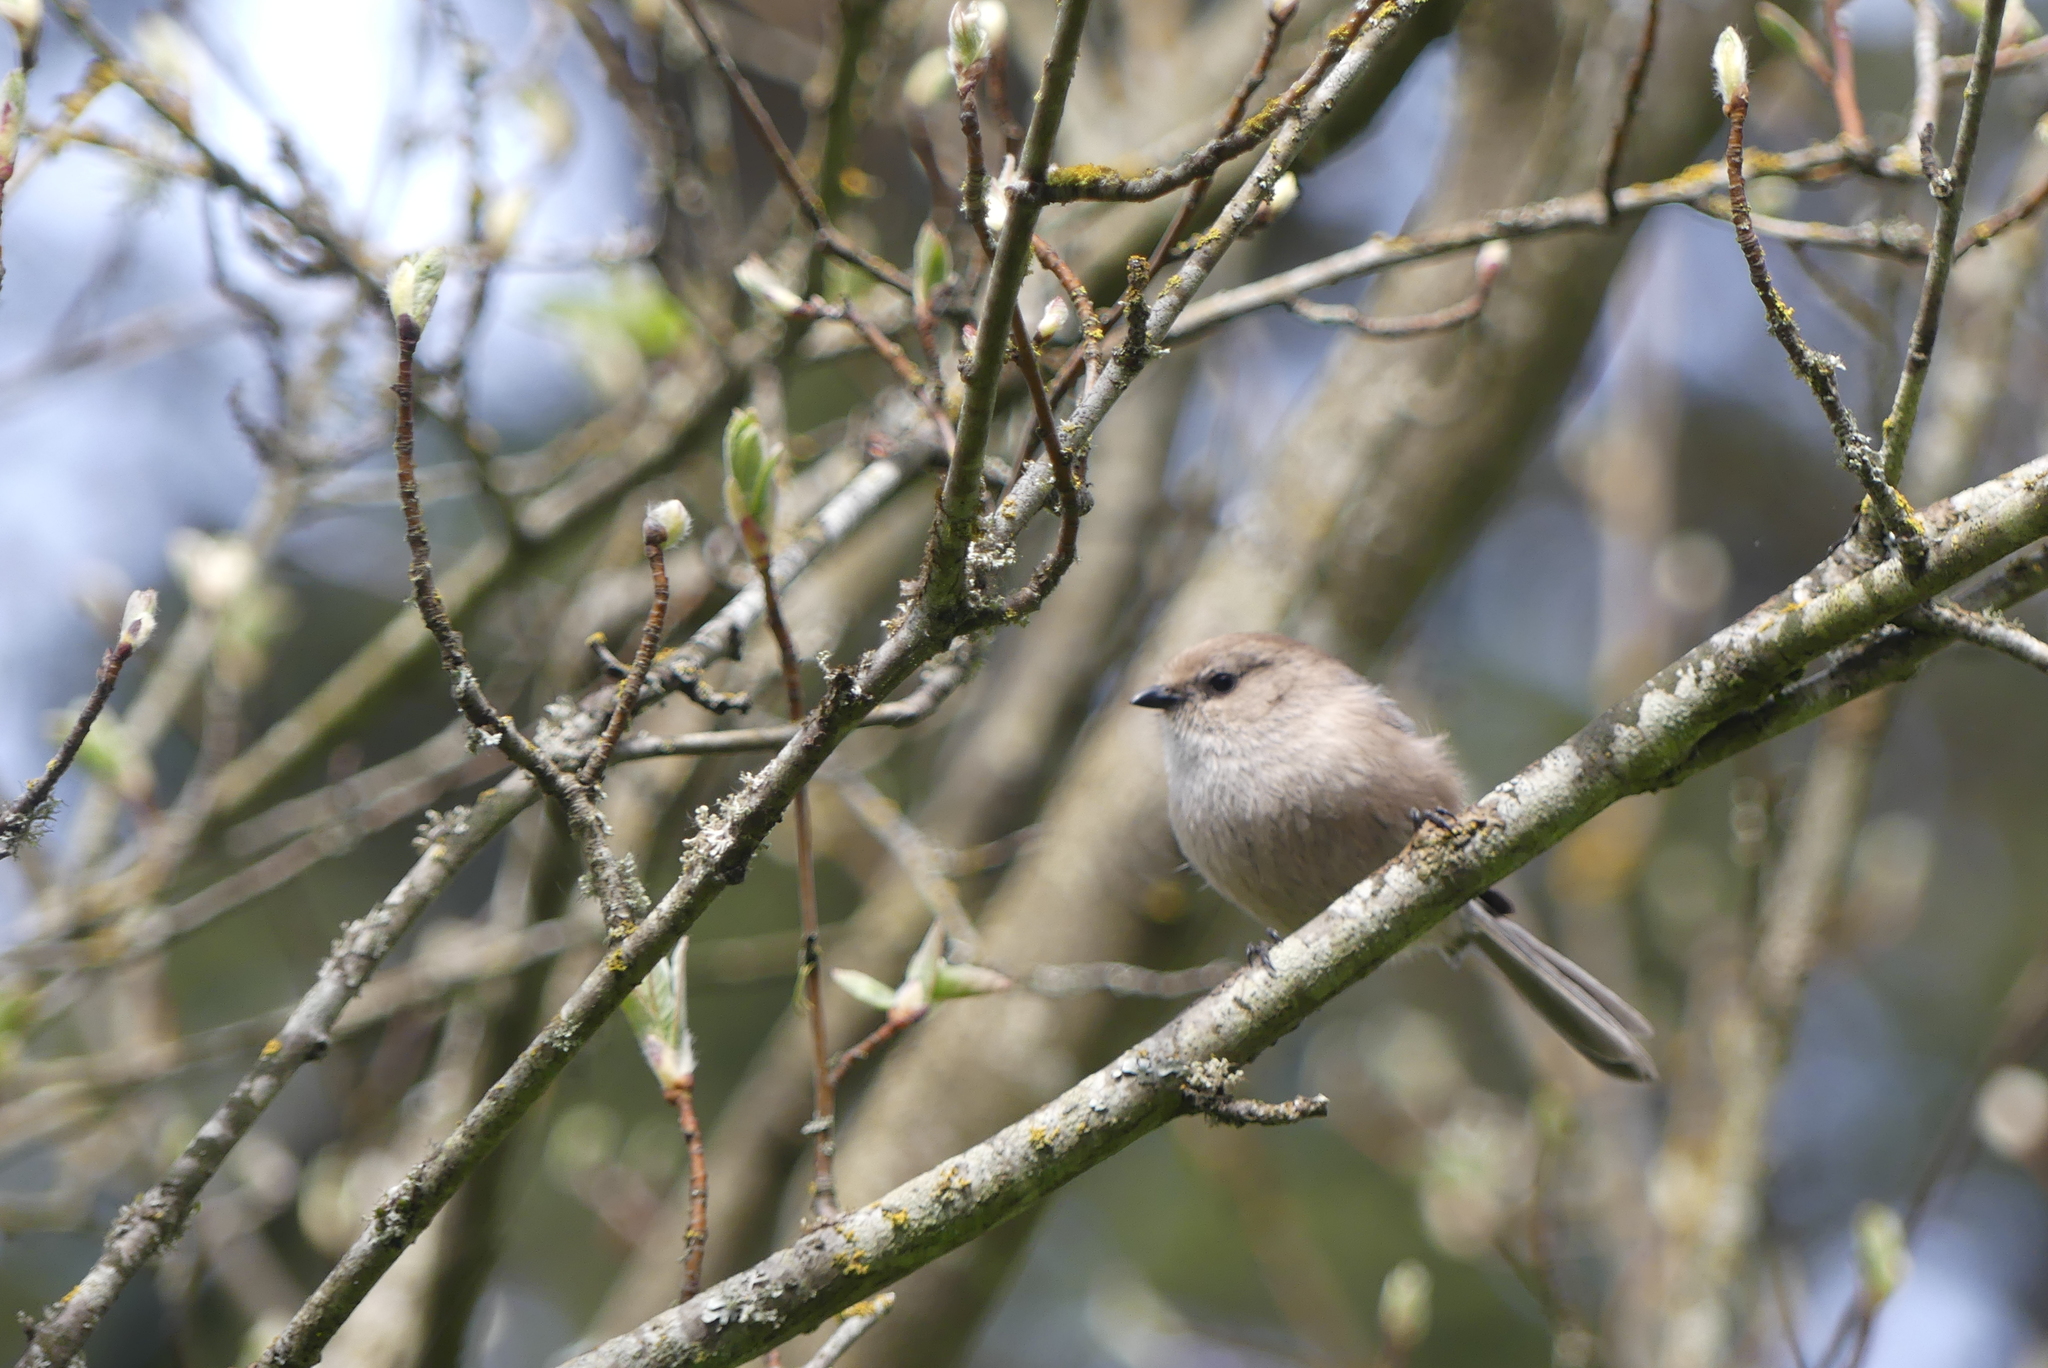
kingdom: Animalia
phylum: Chordata
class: Aves
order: Passeriformes
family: Aegithalidae
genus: Psaltriparus
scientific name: Psaltriparus minimus
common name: American bushtit
